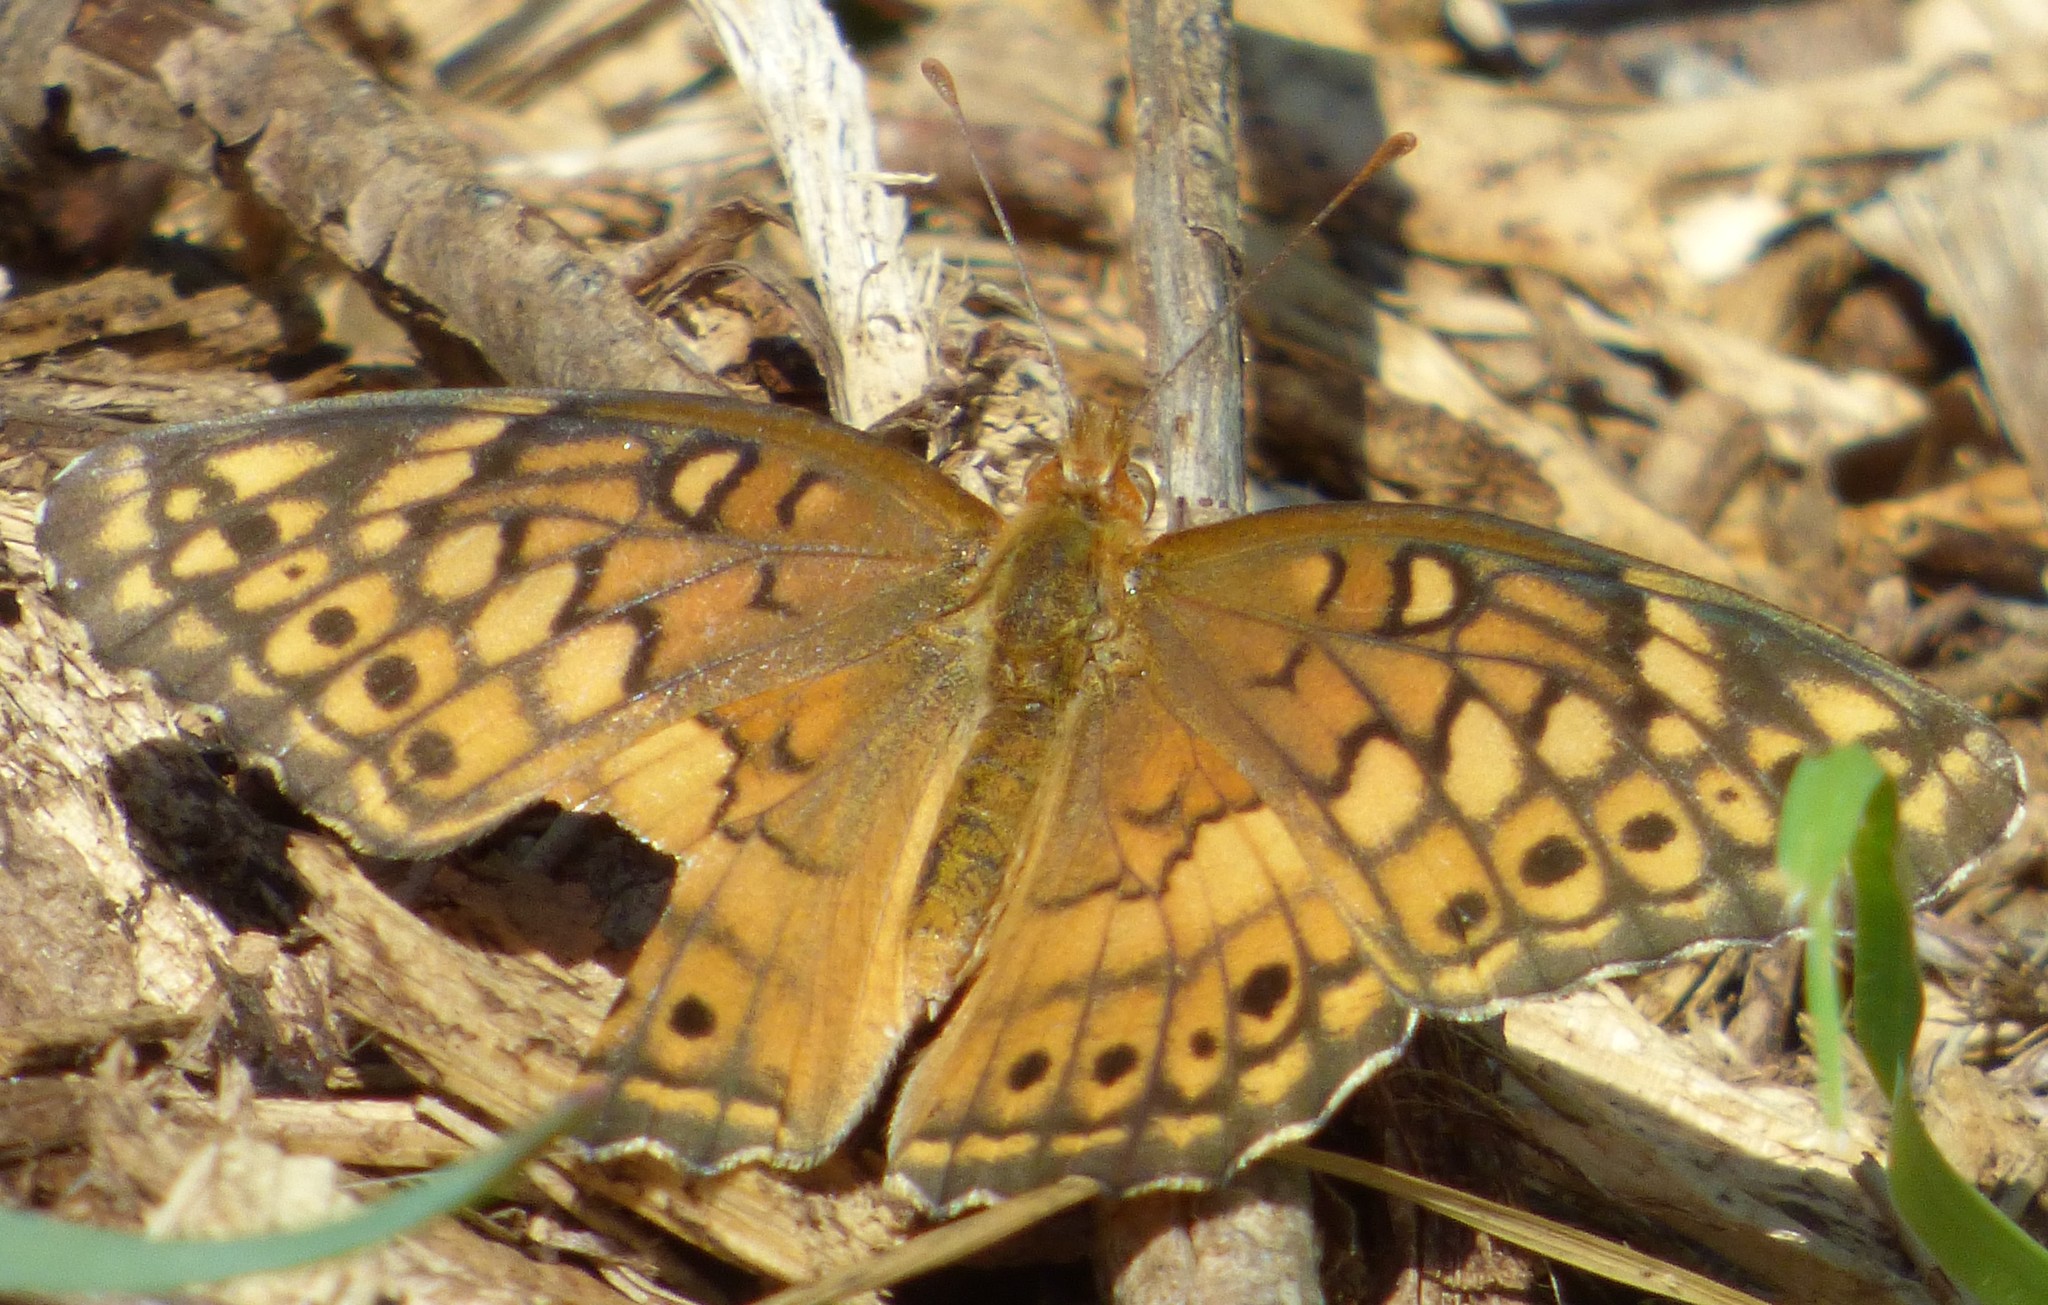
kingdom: Animalia
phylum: Arthropoda
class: Insecta
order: Lepidoptera
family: Nymphalidae
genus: Euptoieta
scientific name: Euptoieta claudia
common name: Variegated fritillary
